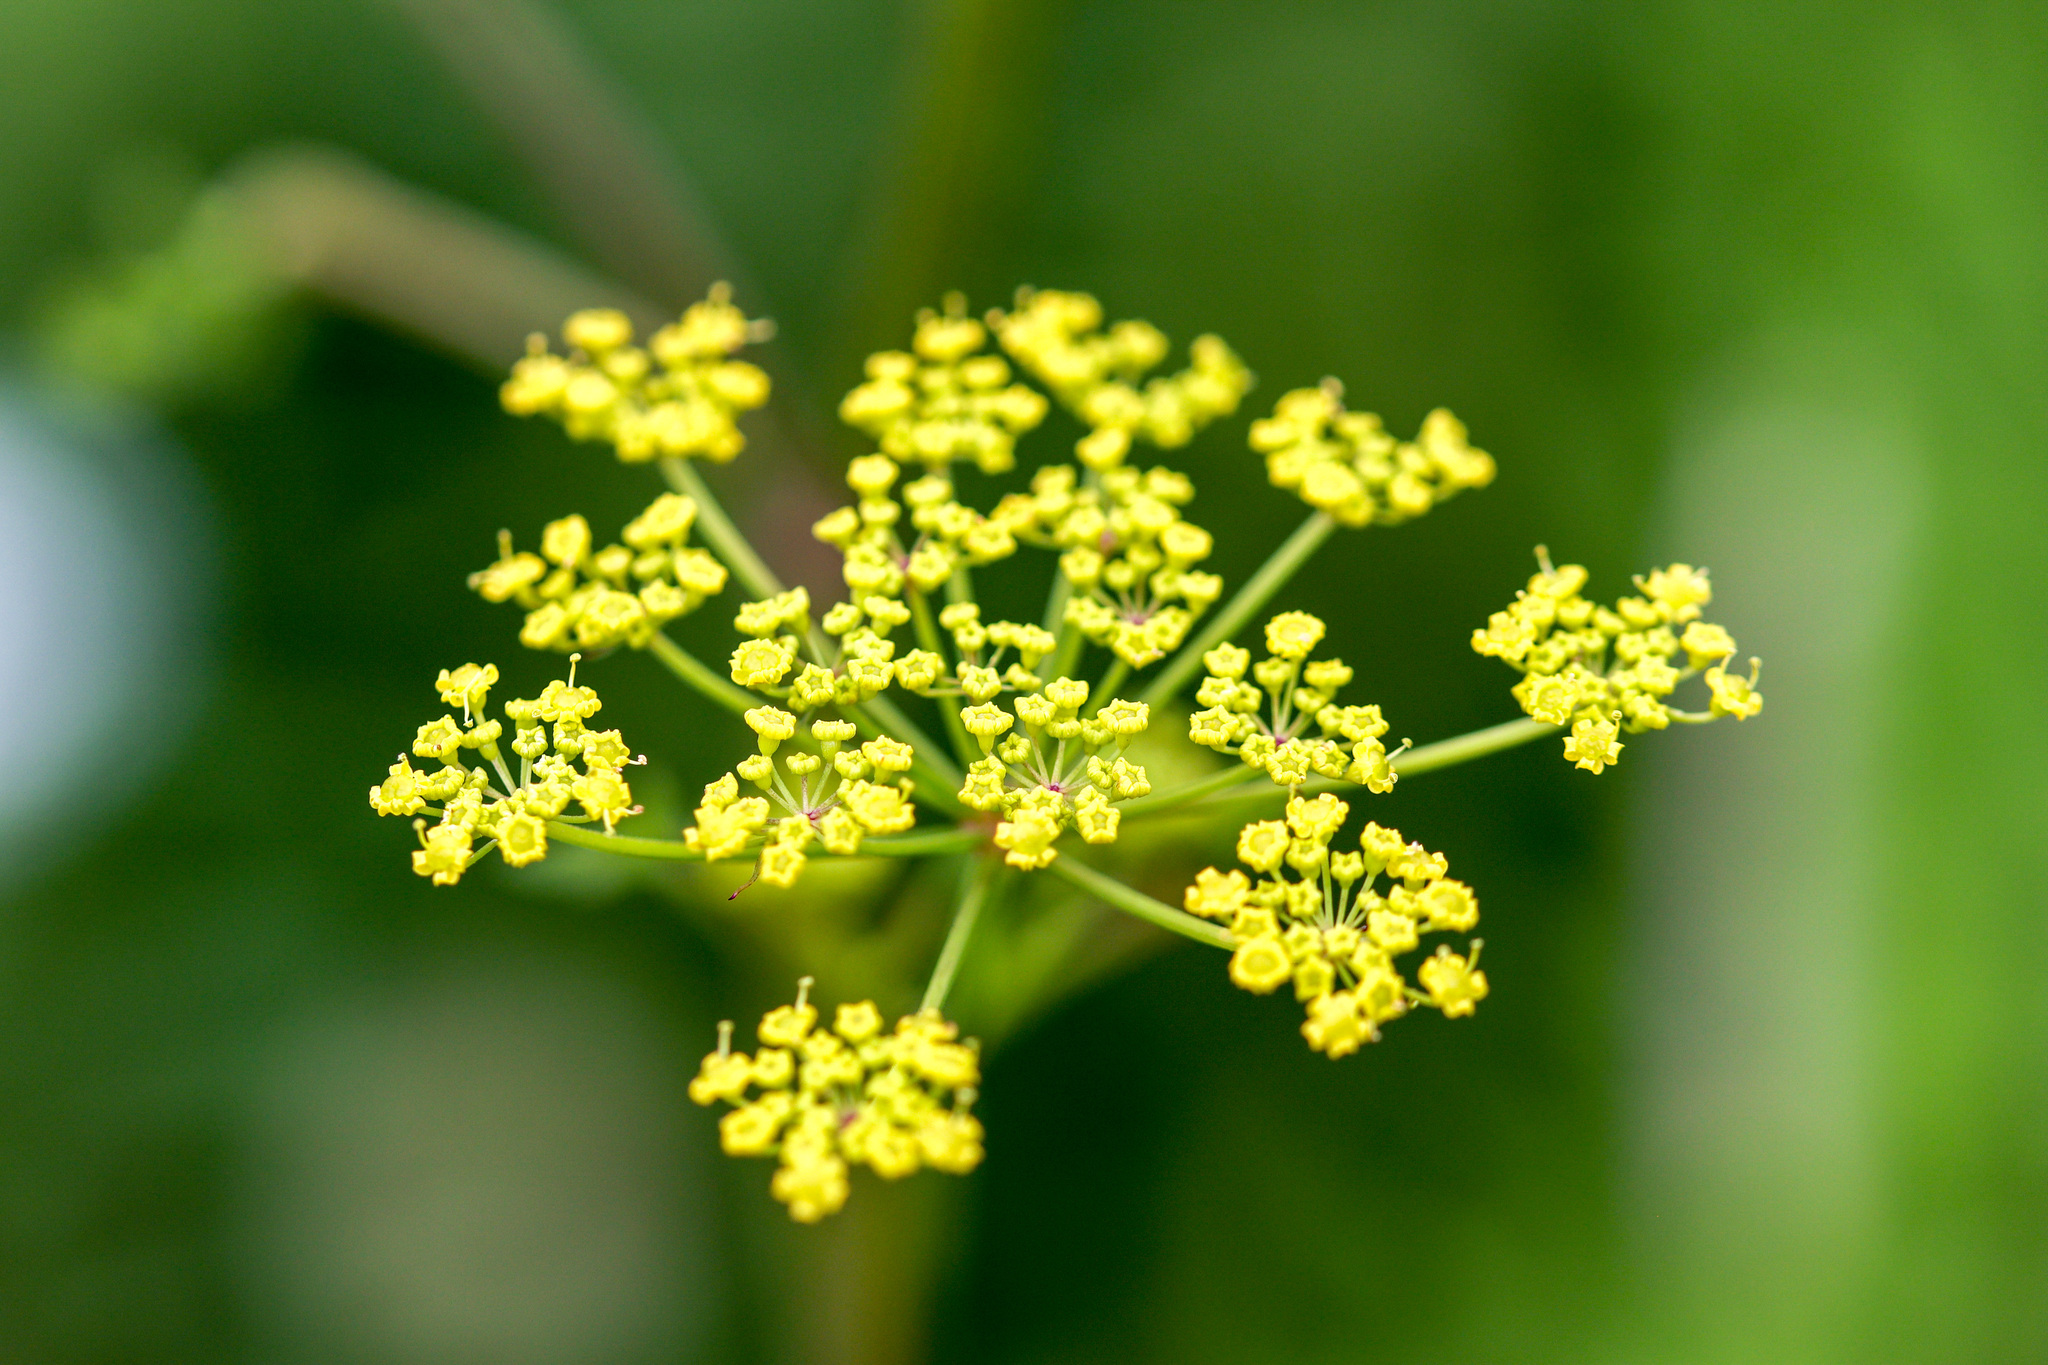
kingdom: Plantae
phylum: Tracheophyta
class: Magnoliopsida
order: Apiales
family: Apiaceae
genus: Pastinaca
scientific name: Pastinaca sativa
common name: Wild parsnip
